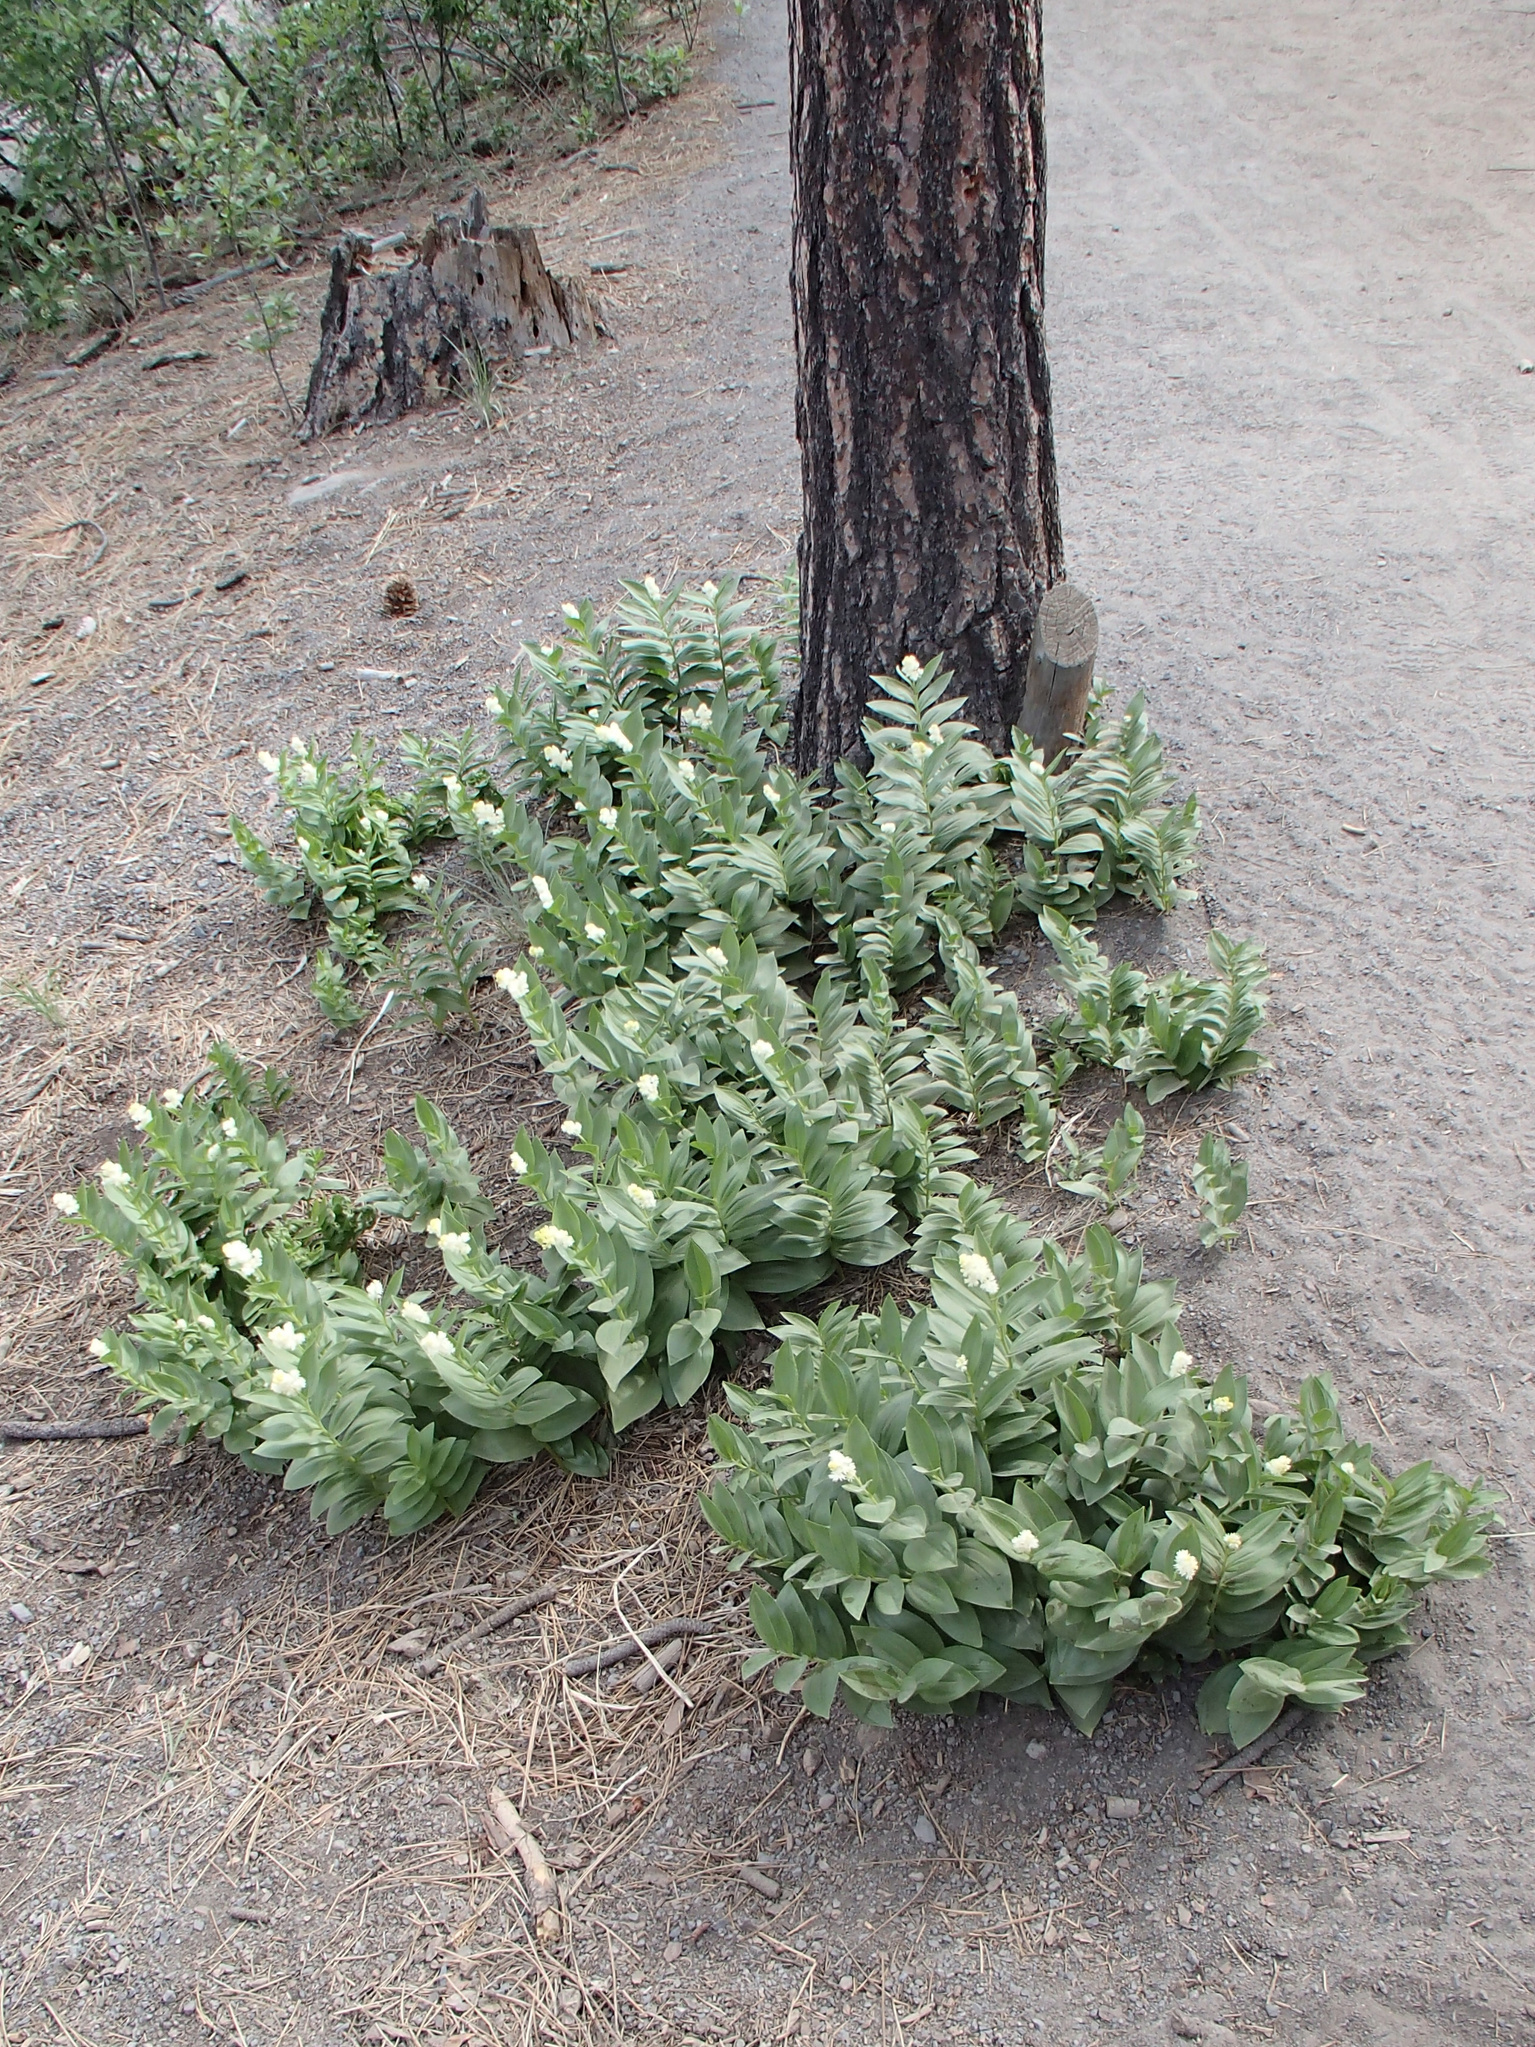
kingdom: Plantae
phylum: Tracheophyta
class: Liliopsida
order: Asparagales
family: Asparagaceae
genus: Maianthemum
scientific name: Maianthemum racemosum
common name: False spikenard
